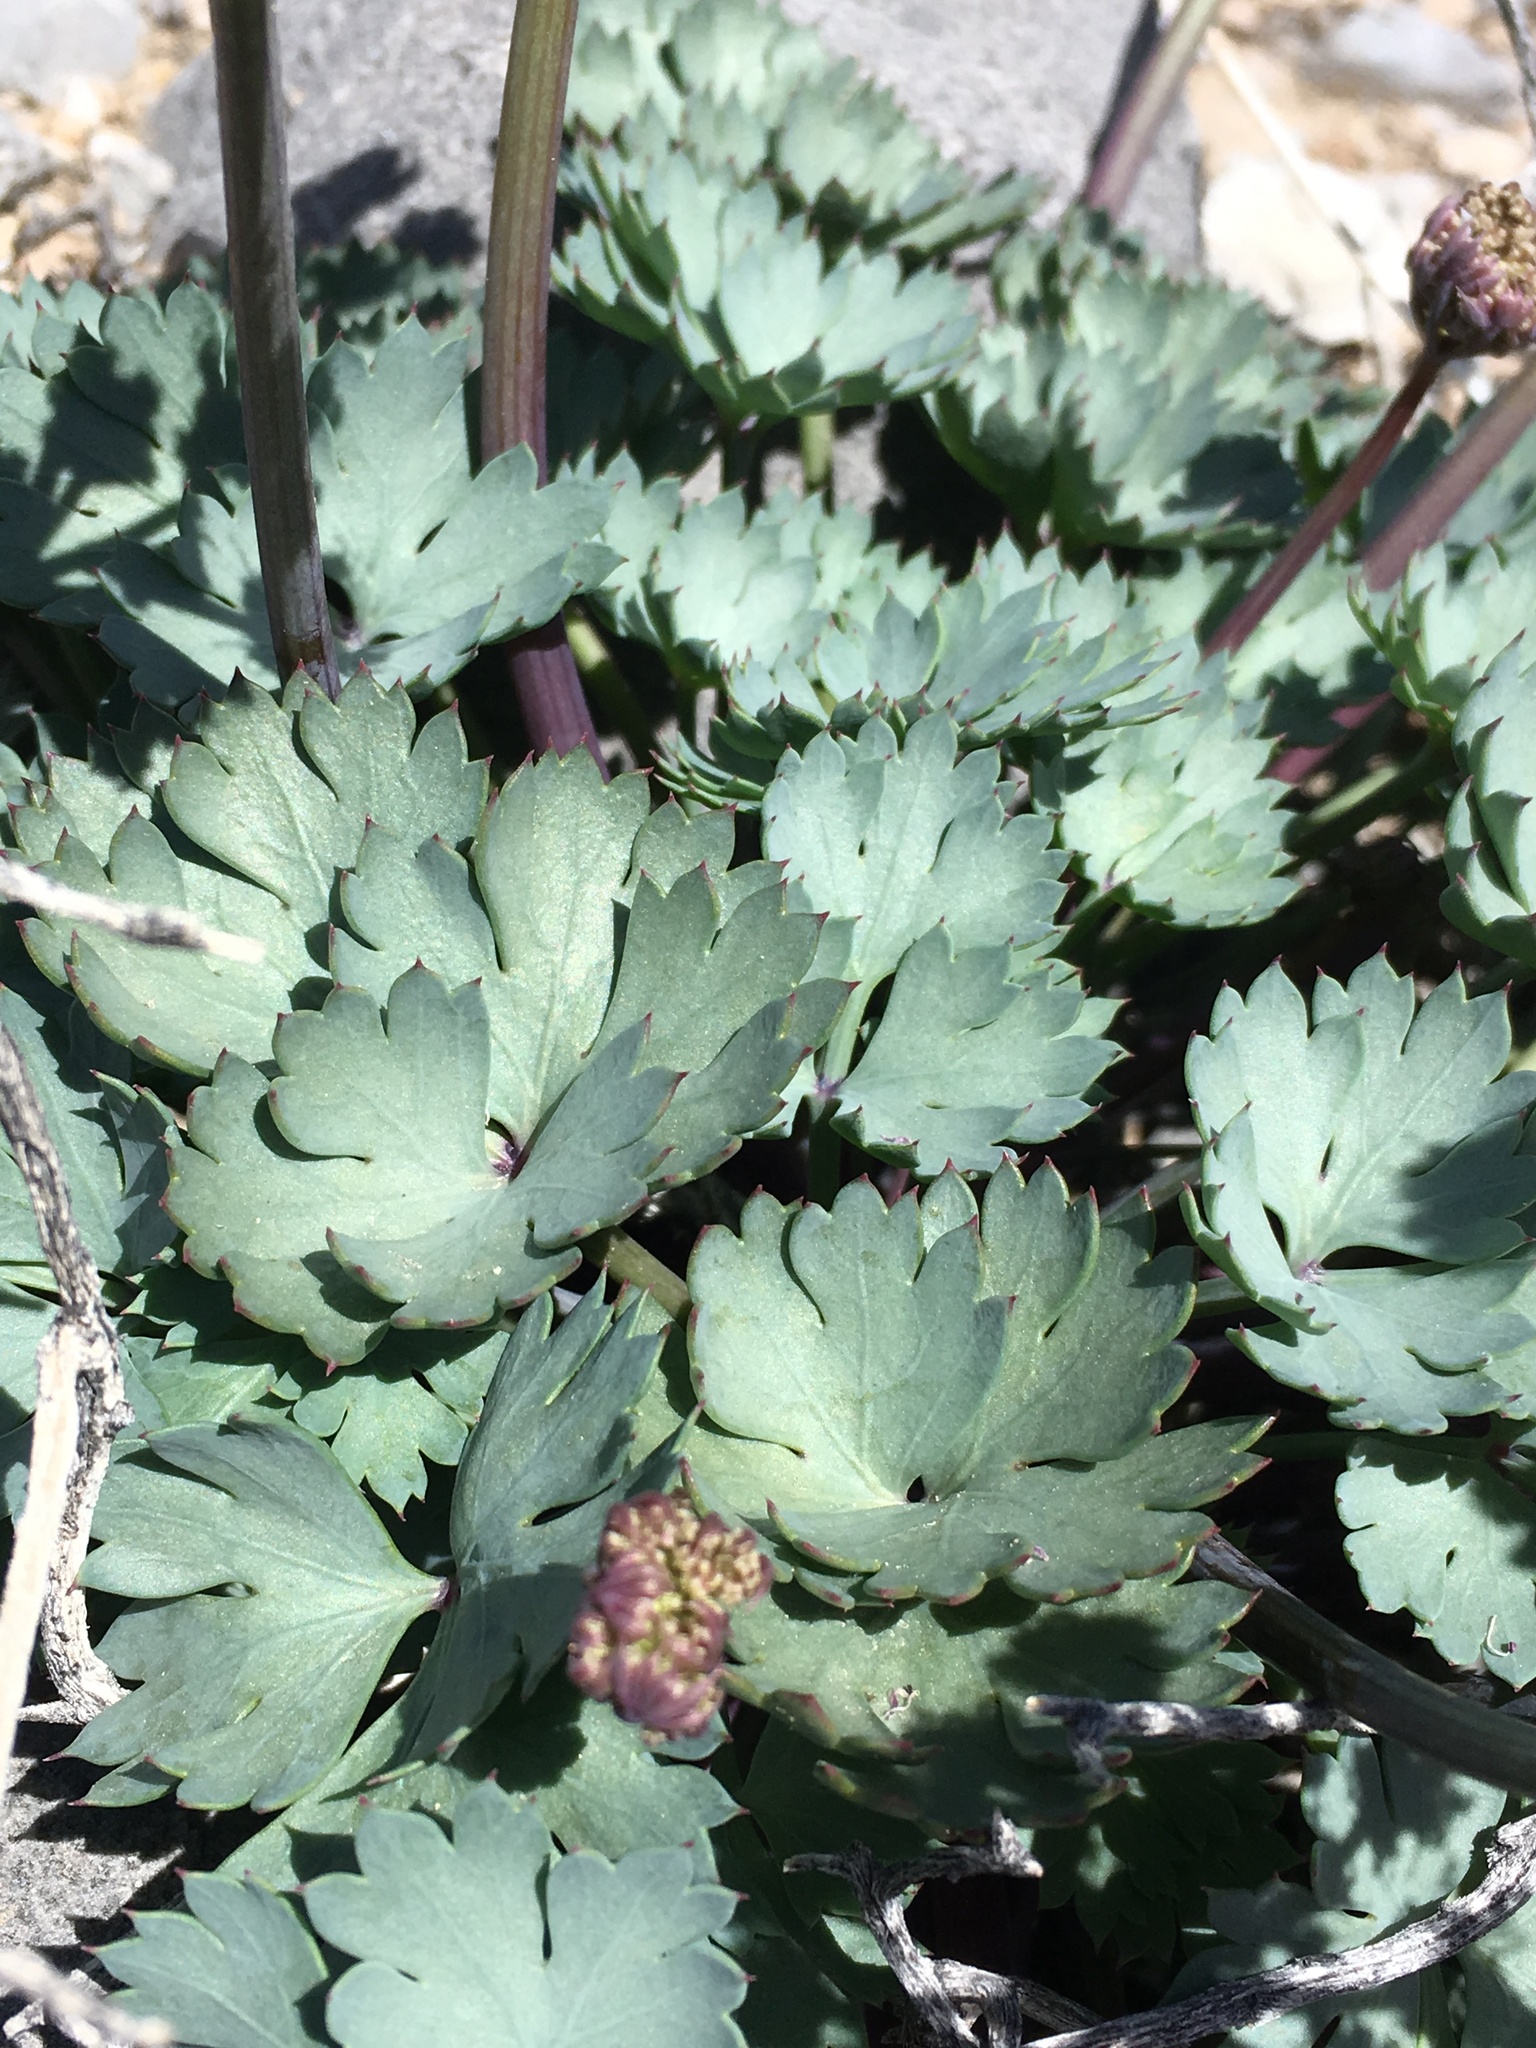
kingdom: Plantae
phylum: Tracheophyta
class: Magnoliopsida
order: Apiales
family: Apiaceae
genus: Cymopterus
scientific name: Cymopterus gilmanii
